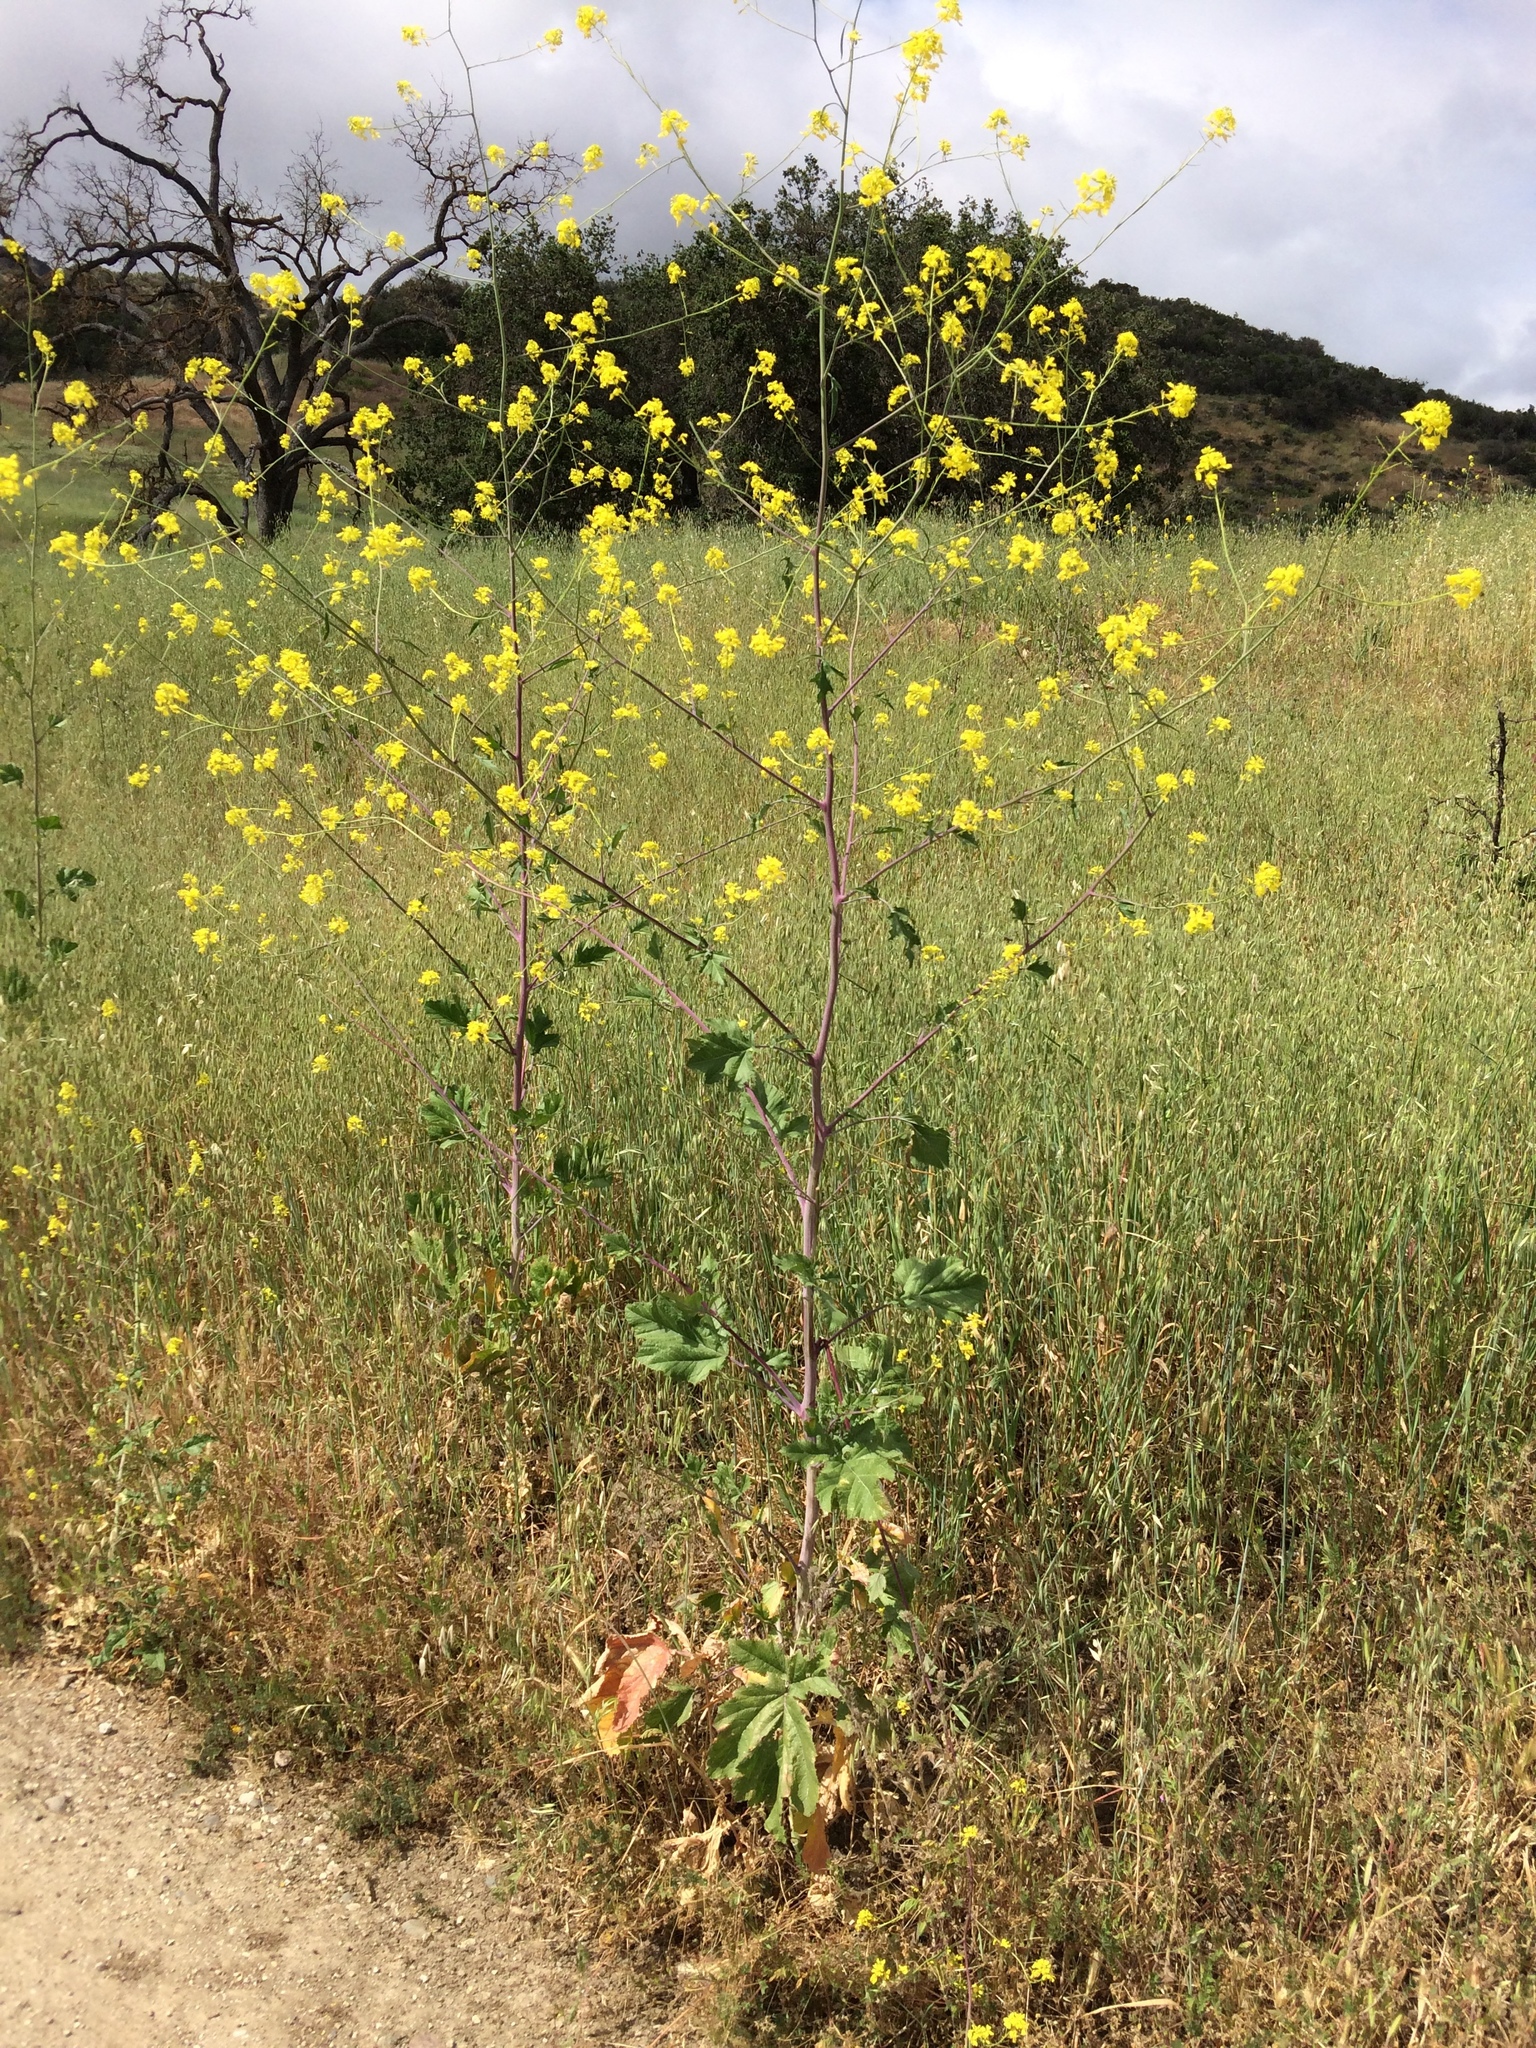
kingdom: Plantae
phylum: Tracheophyta
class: Magnoliopsida
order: Brassicales
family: Brassicaceae
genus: Brassica
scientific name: Brassica nigra
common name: Black mustard
